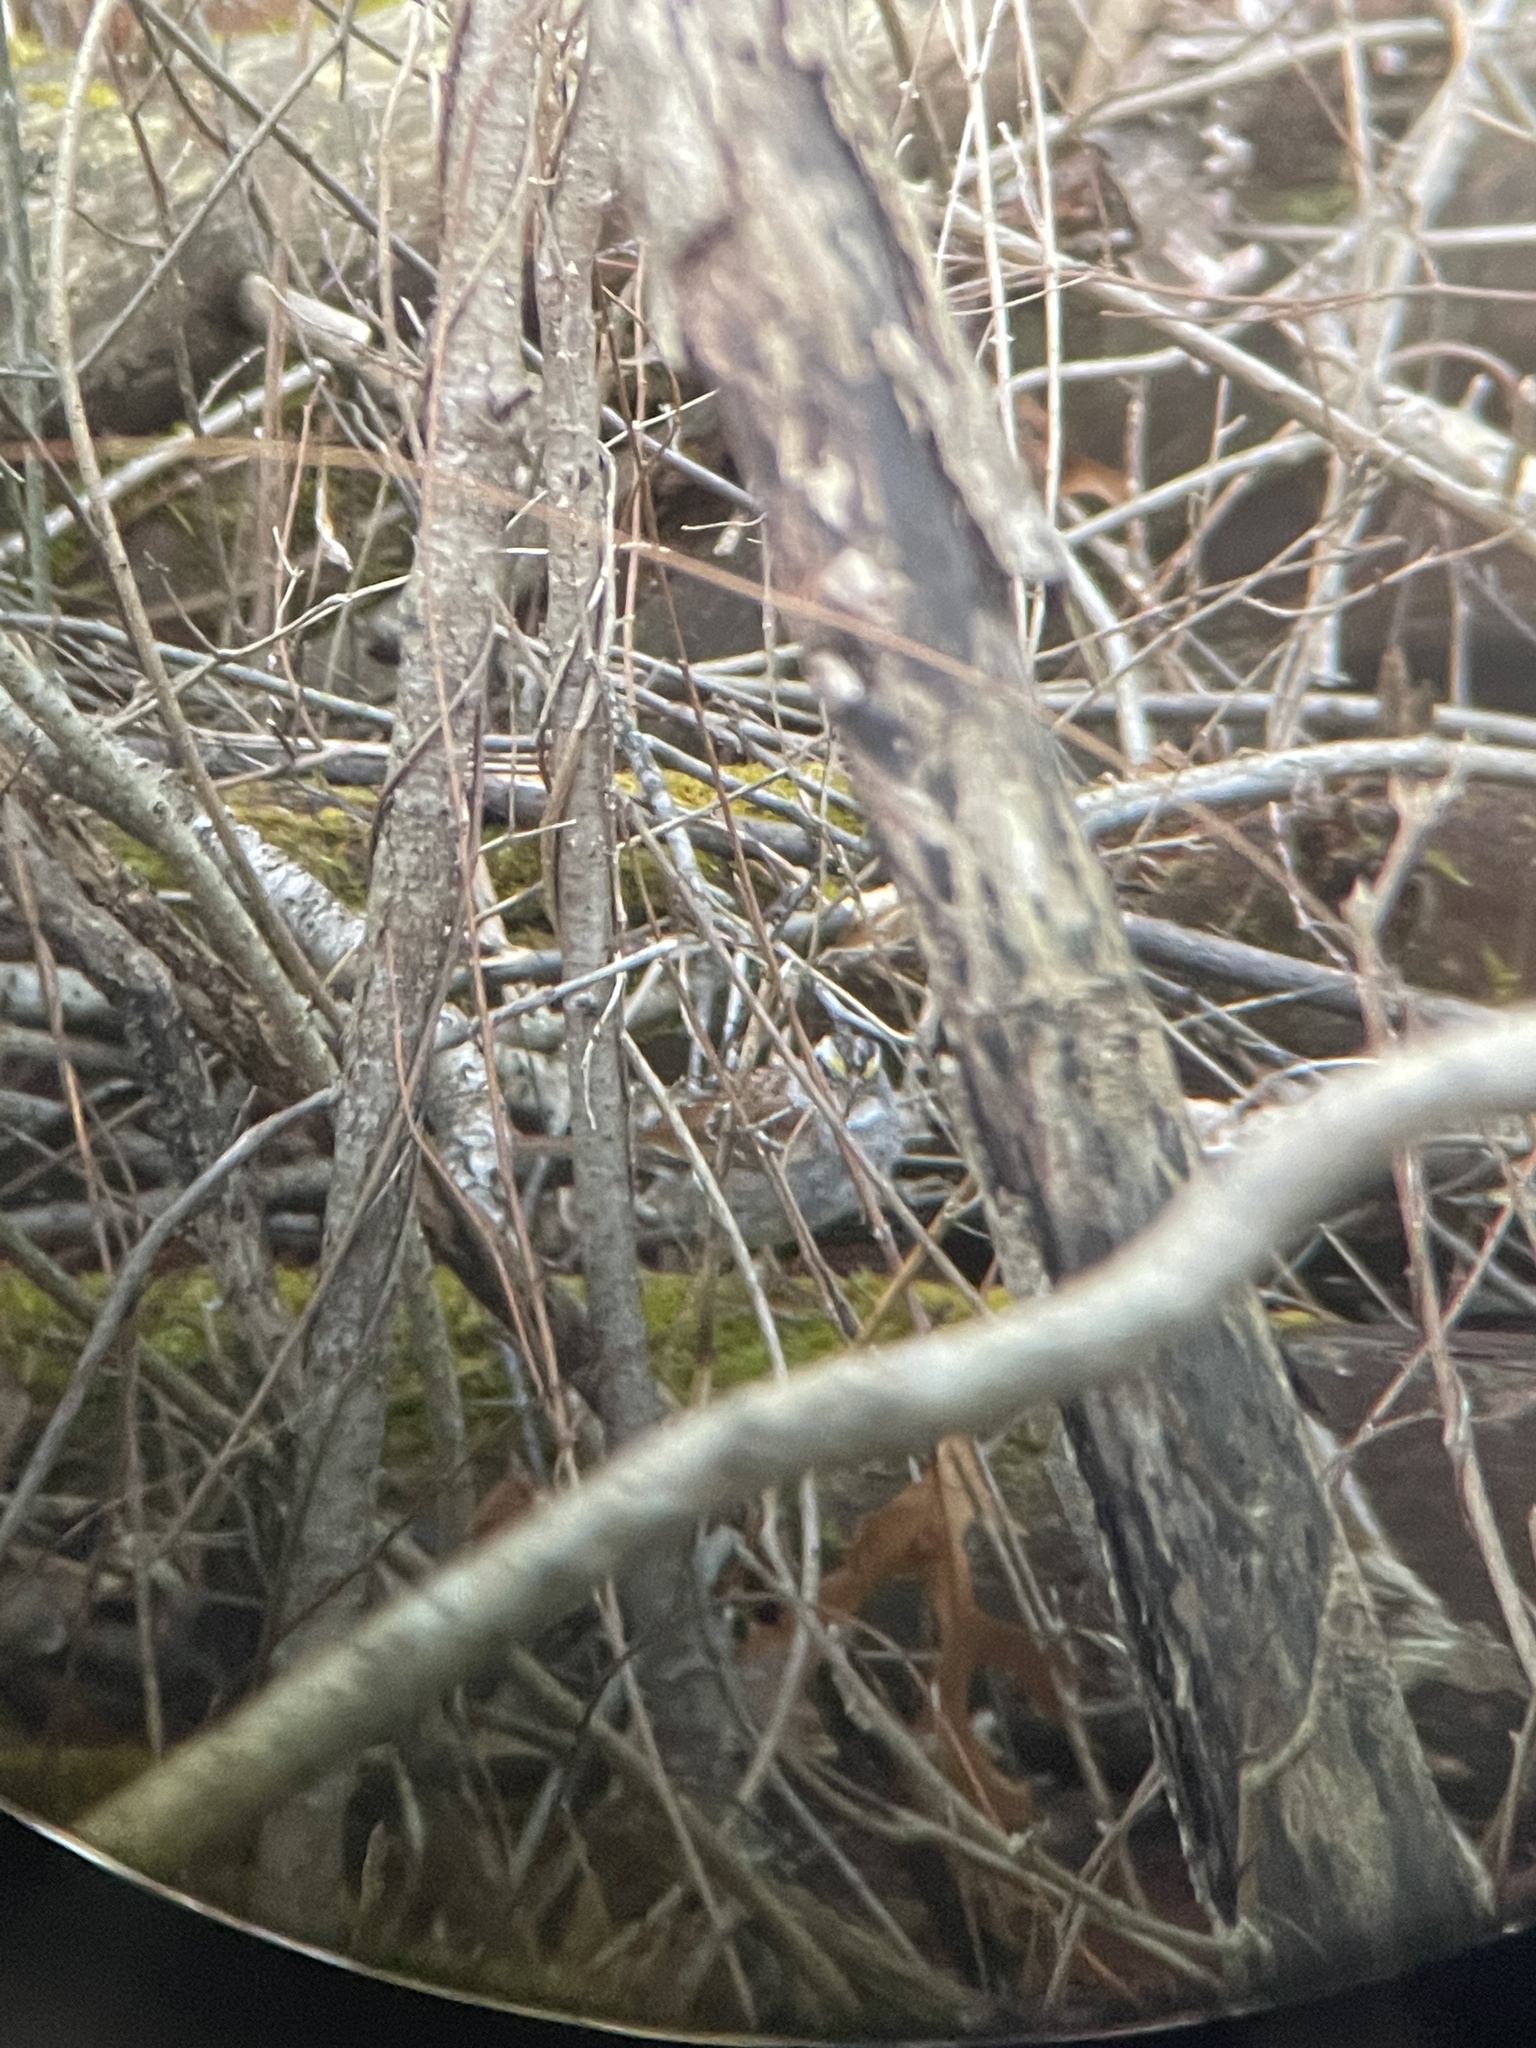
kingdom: Animalia
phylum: Chordata
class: Aves
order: Passeriformes
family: Passerellidae
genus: Zonotrichia
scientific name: Zonotrichia albicollis
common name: White-throated sparrow
